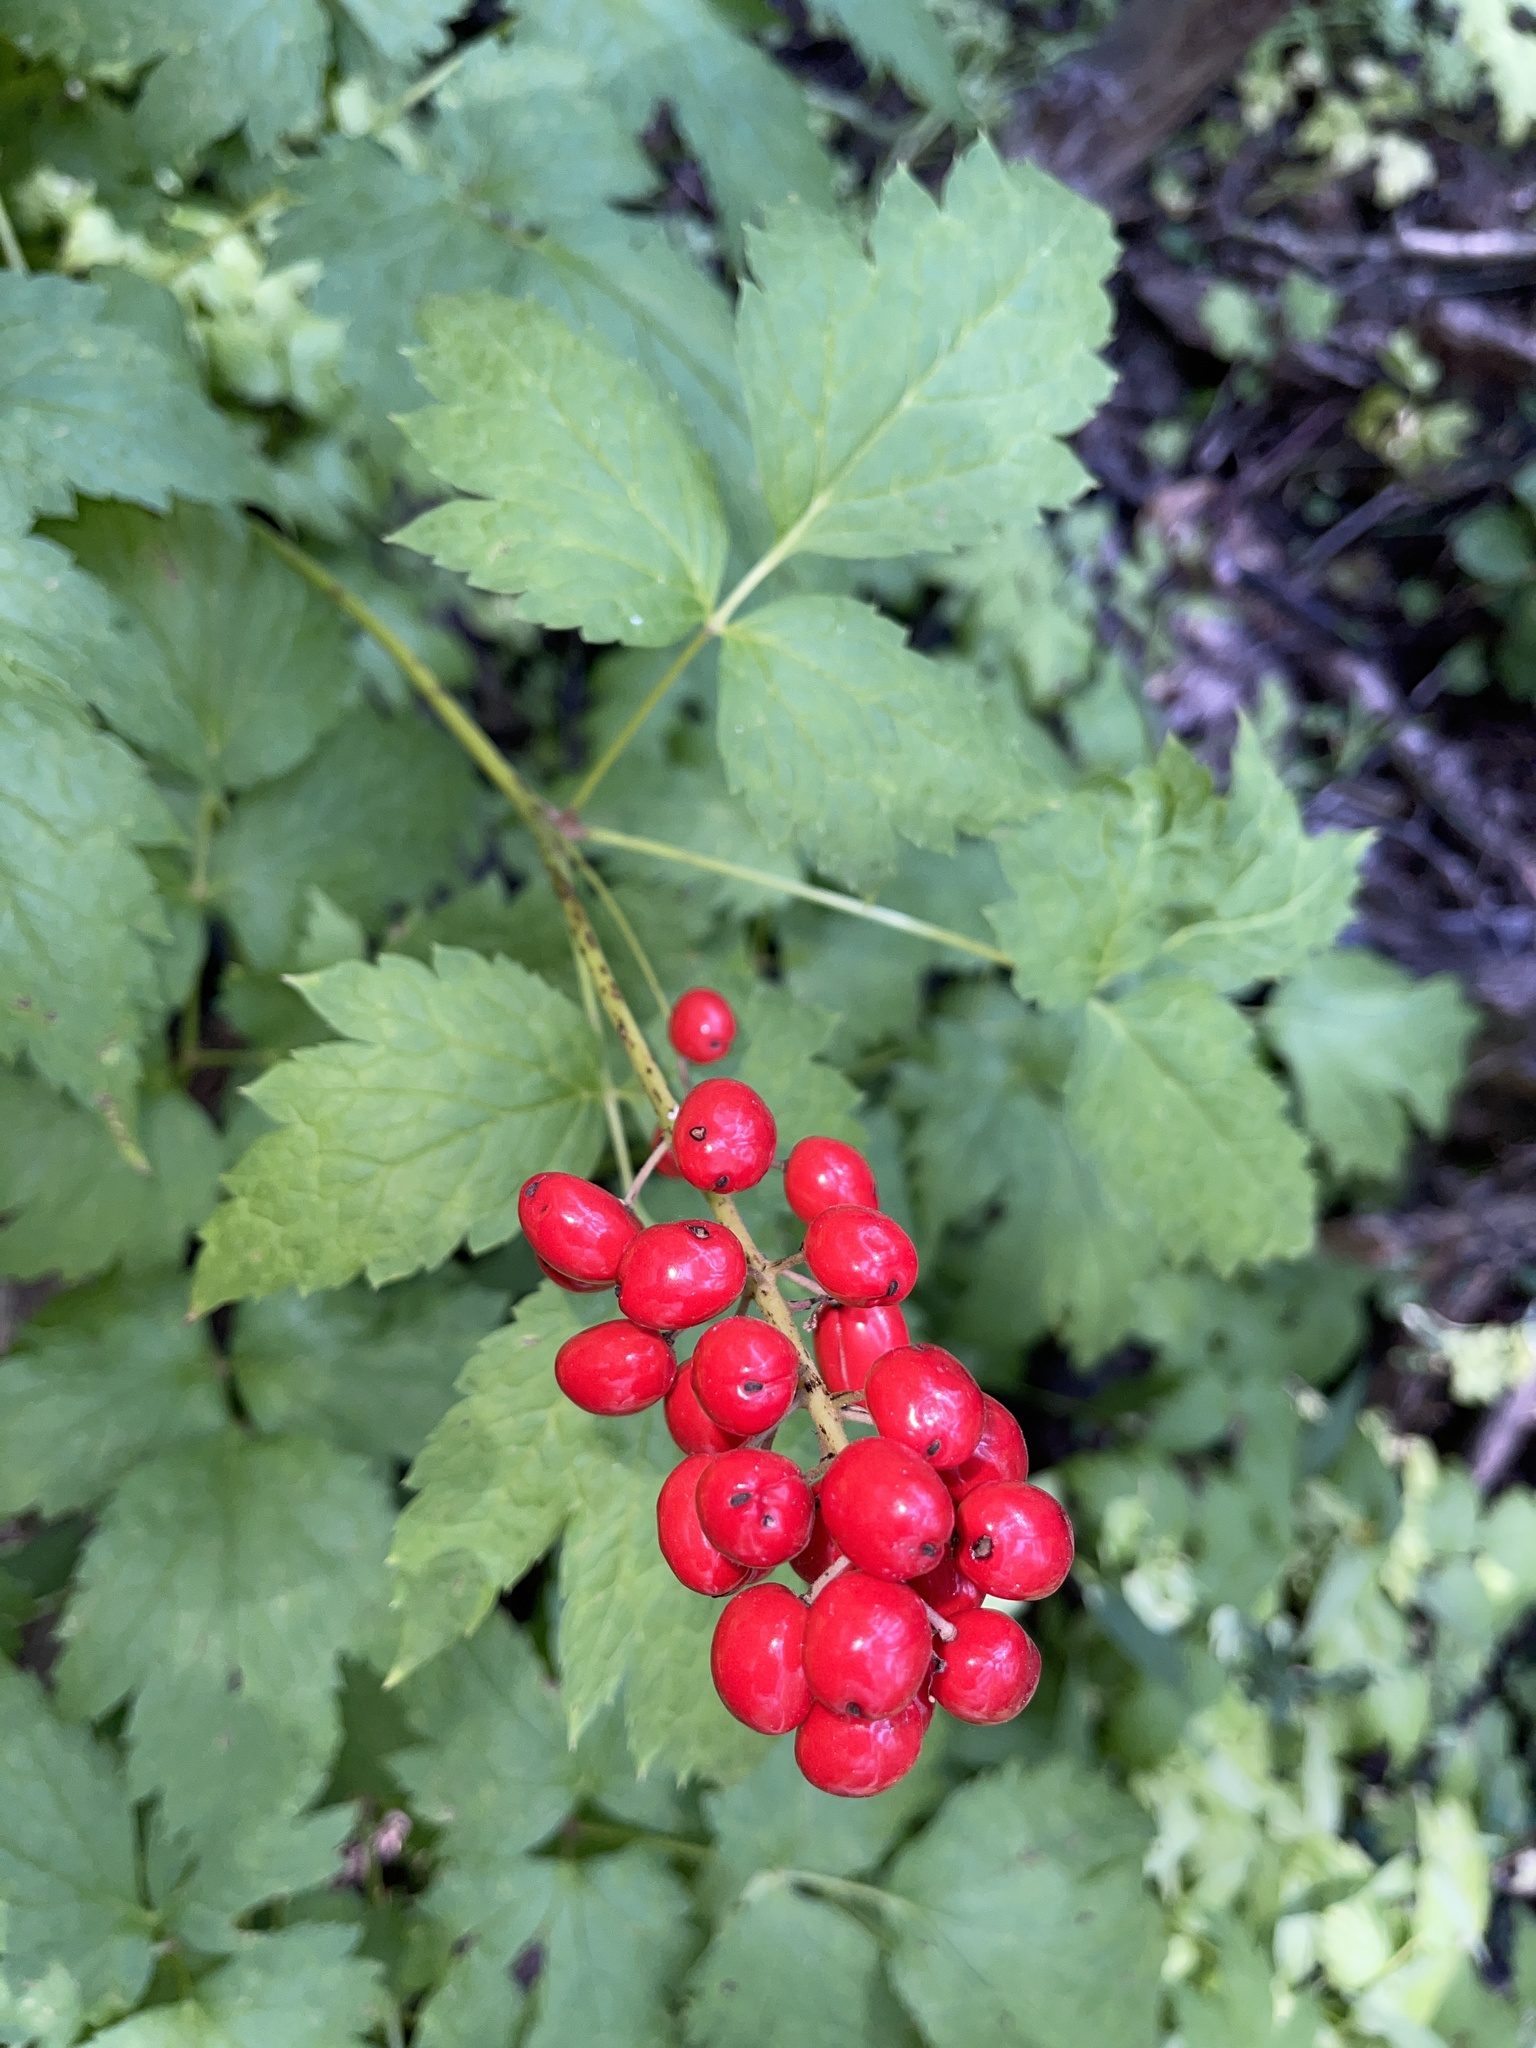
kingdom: Plantae
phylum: Tracheophyta
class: Magnoliopsida
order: Ranunculales
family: Ranunculaceae
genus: Actaea
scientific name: Actaea rubra
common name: Red baneberry
